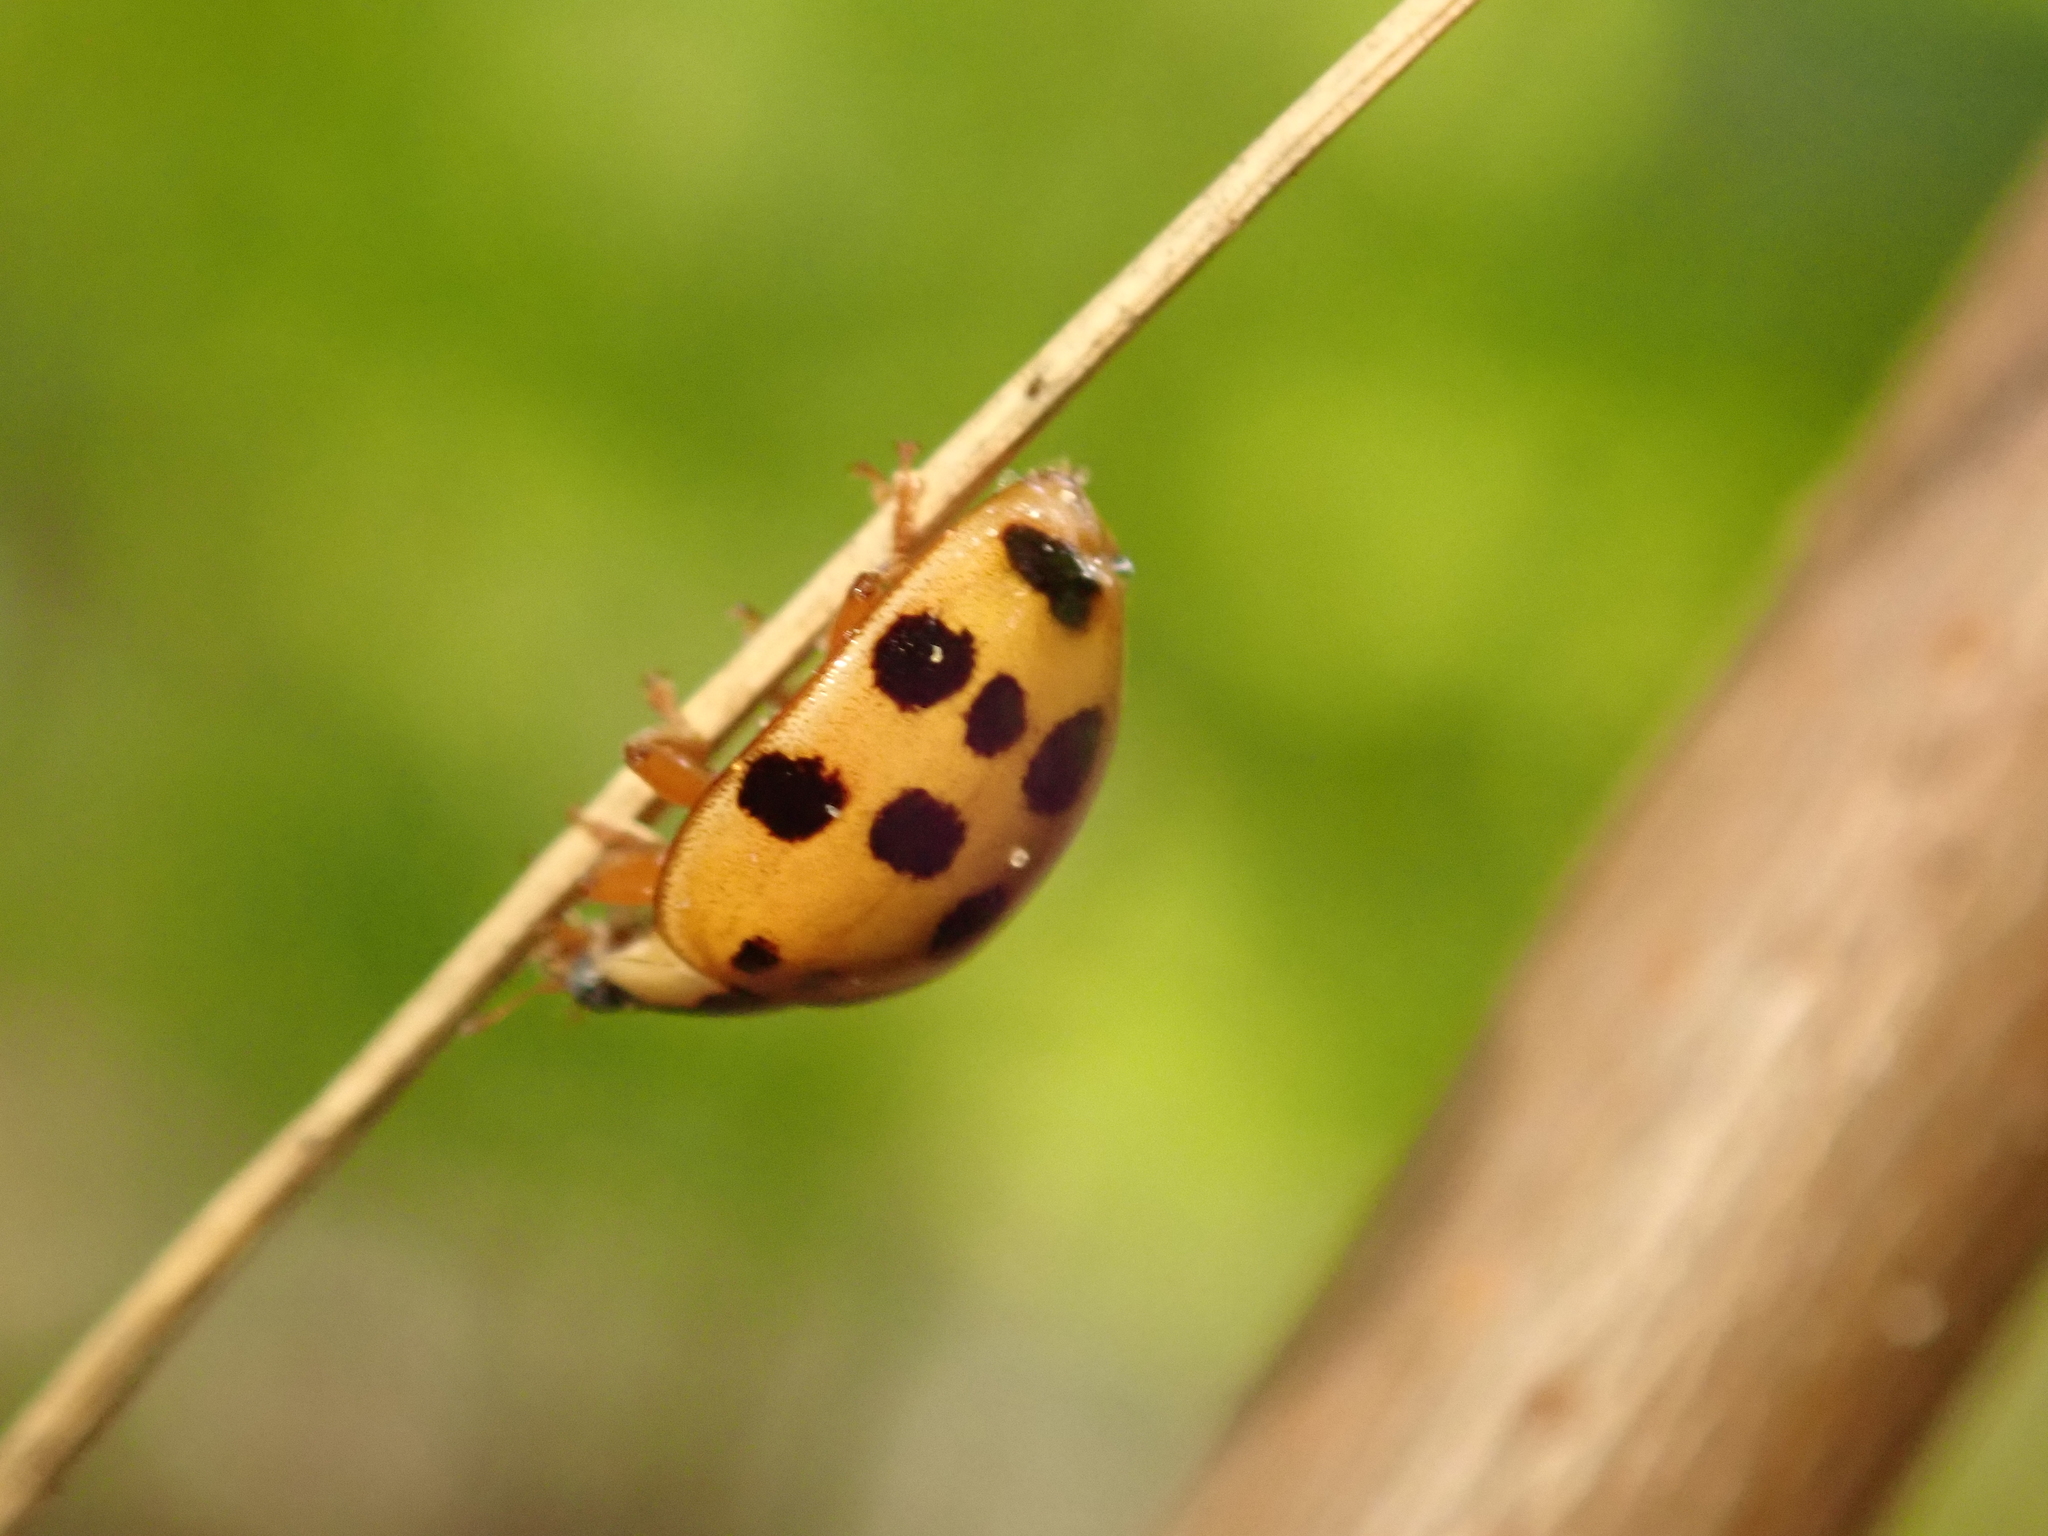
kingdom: Animalia
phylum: Arthropoda
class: Insecta
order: Coleoptera
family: Coccinellidae
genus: Harmonia
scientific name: Harmonia axyridis
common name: Harlequin ladybird
